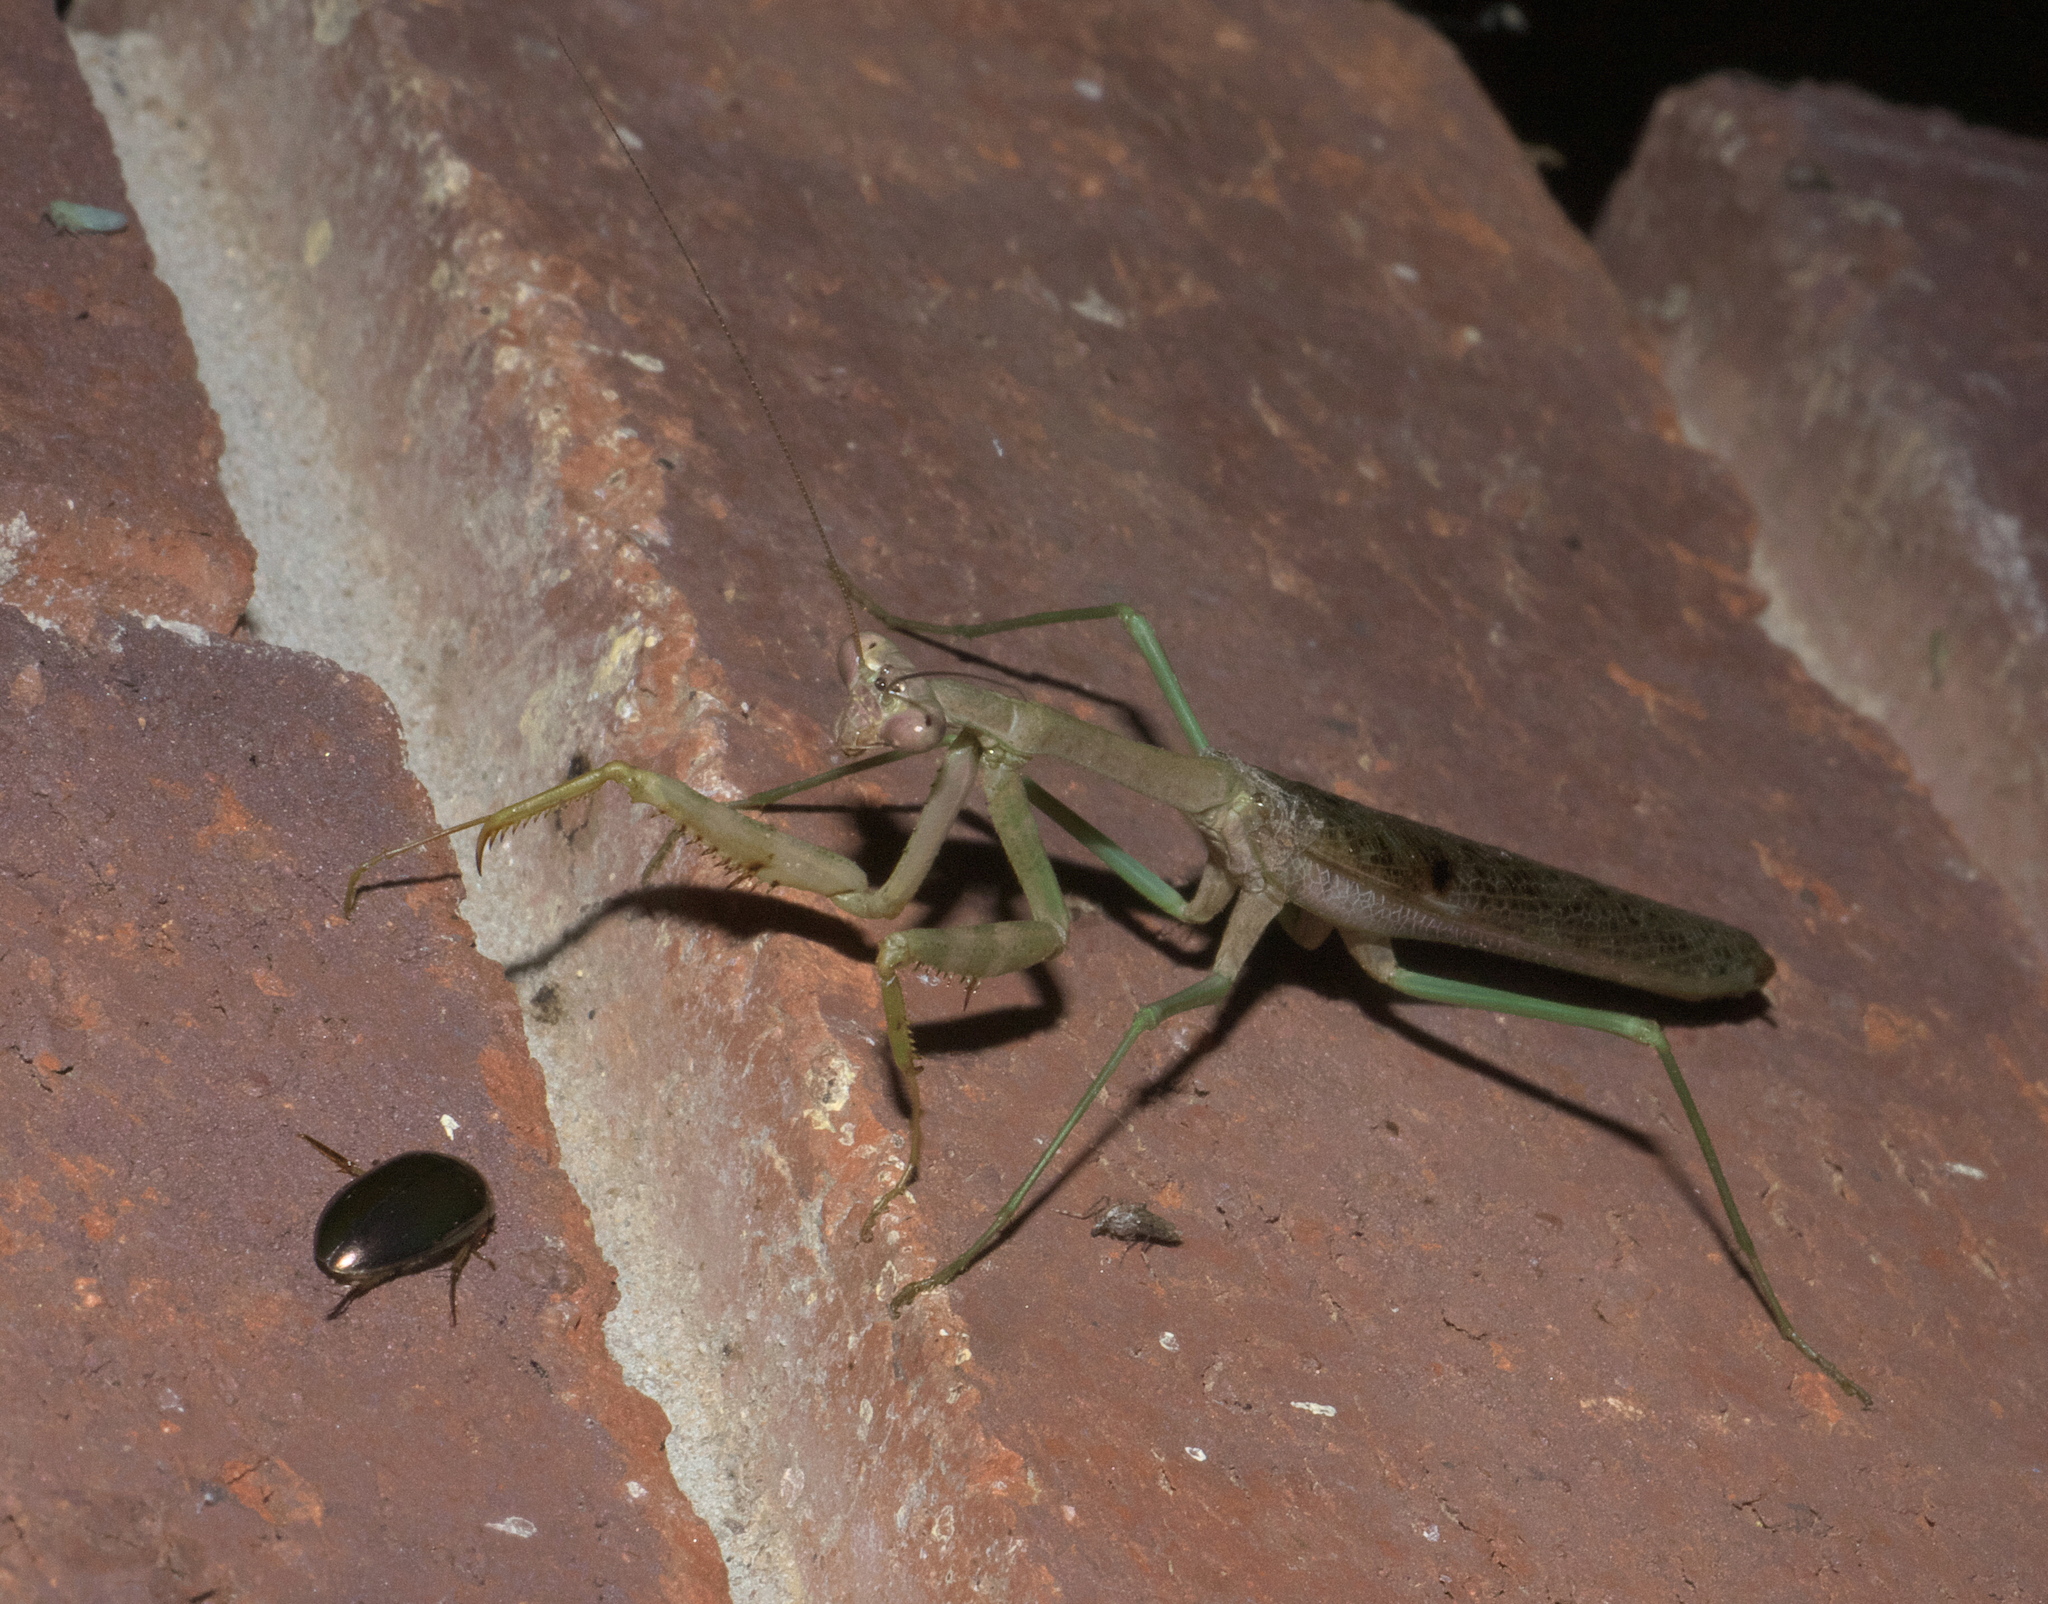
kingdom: Animalia
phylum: Arthropoda
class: Insecta
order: Mantodea
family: Mantidae
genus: Stagmomantis
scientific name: Stagmomantis carolina
